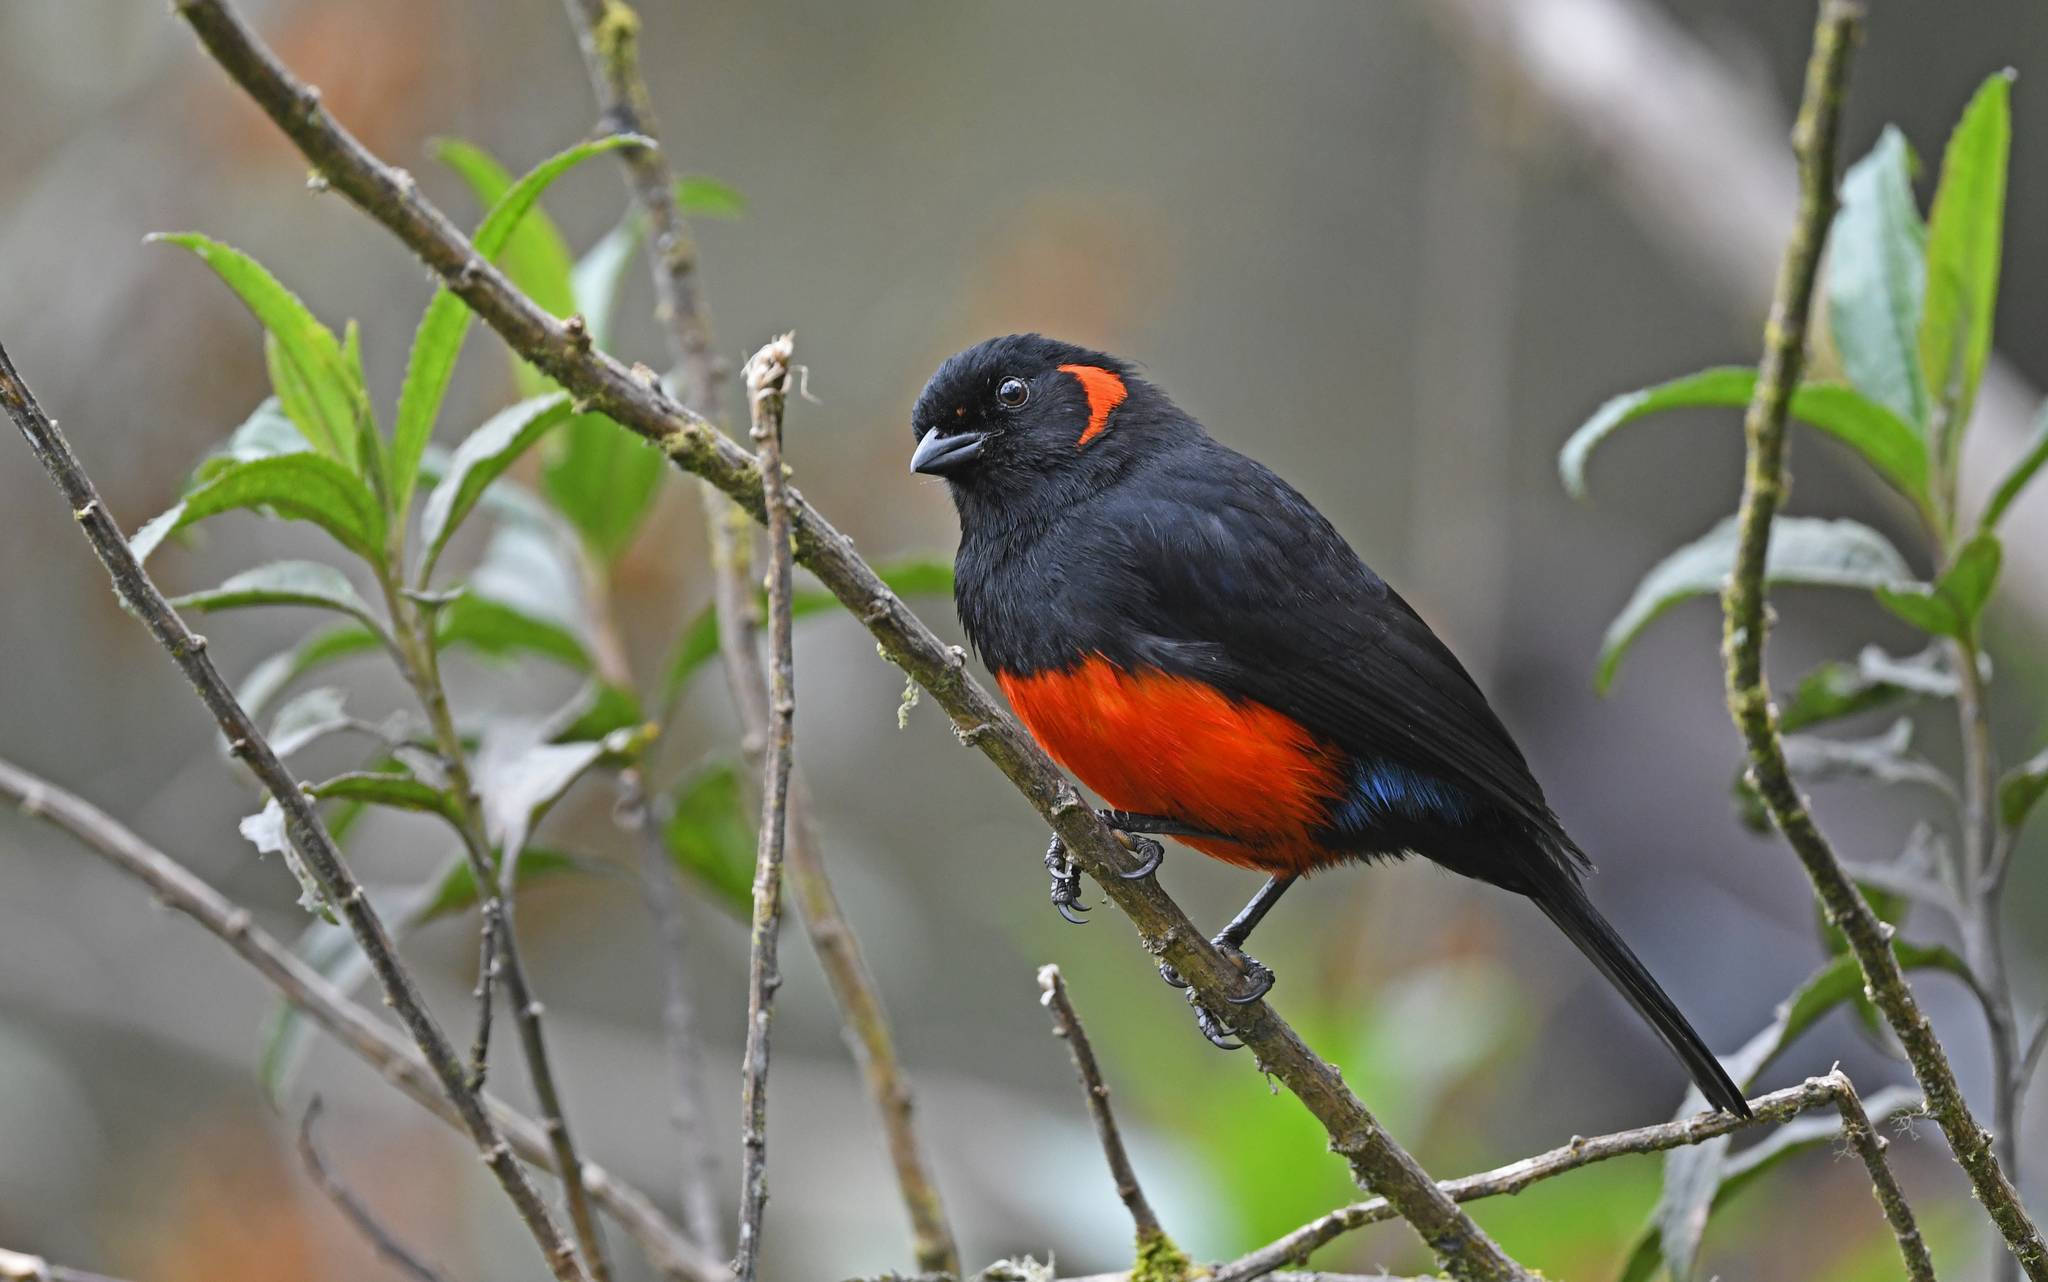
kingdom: Animalia
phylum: Chordata
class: Aves
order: Passeriformes
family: Thraupidae
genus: Anisognathus
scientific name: Anisognathus igniventris
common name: Scarlet-bellied mountain tanager
